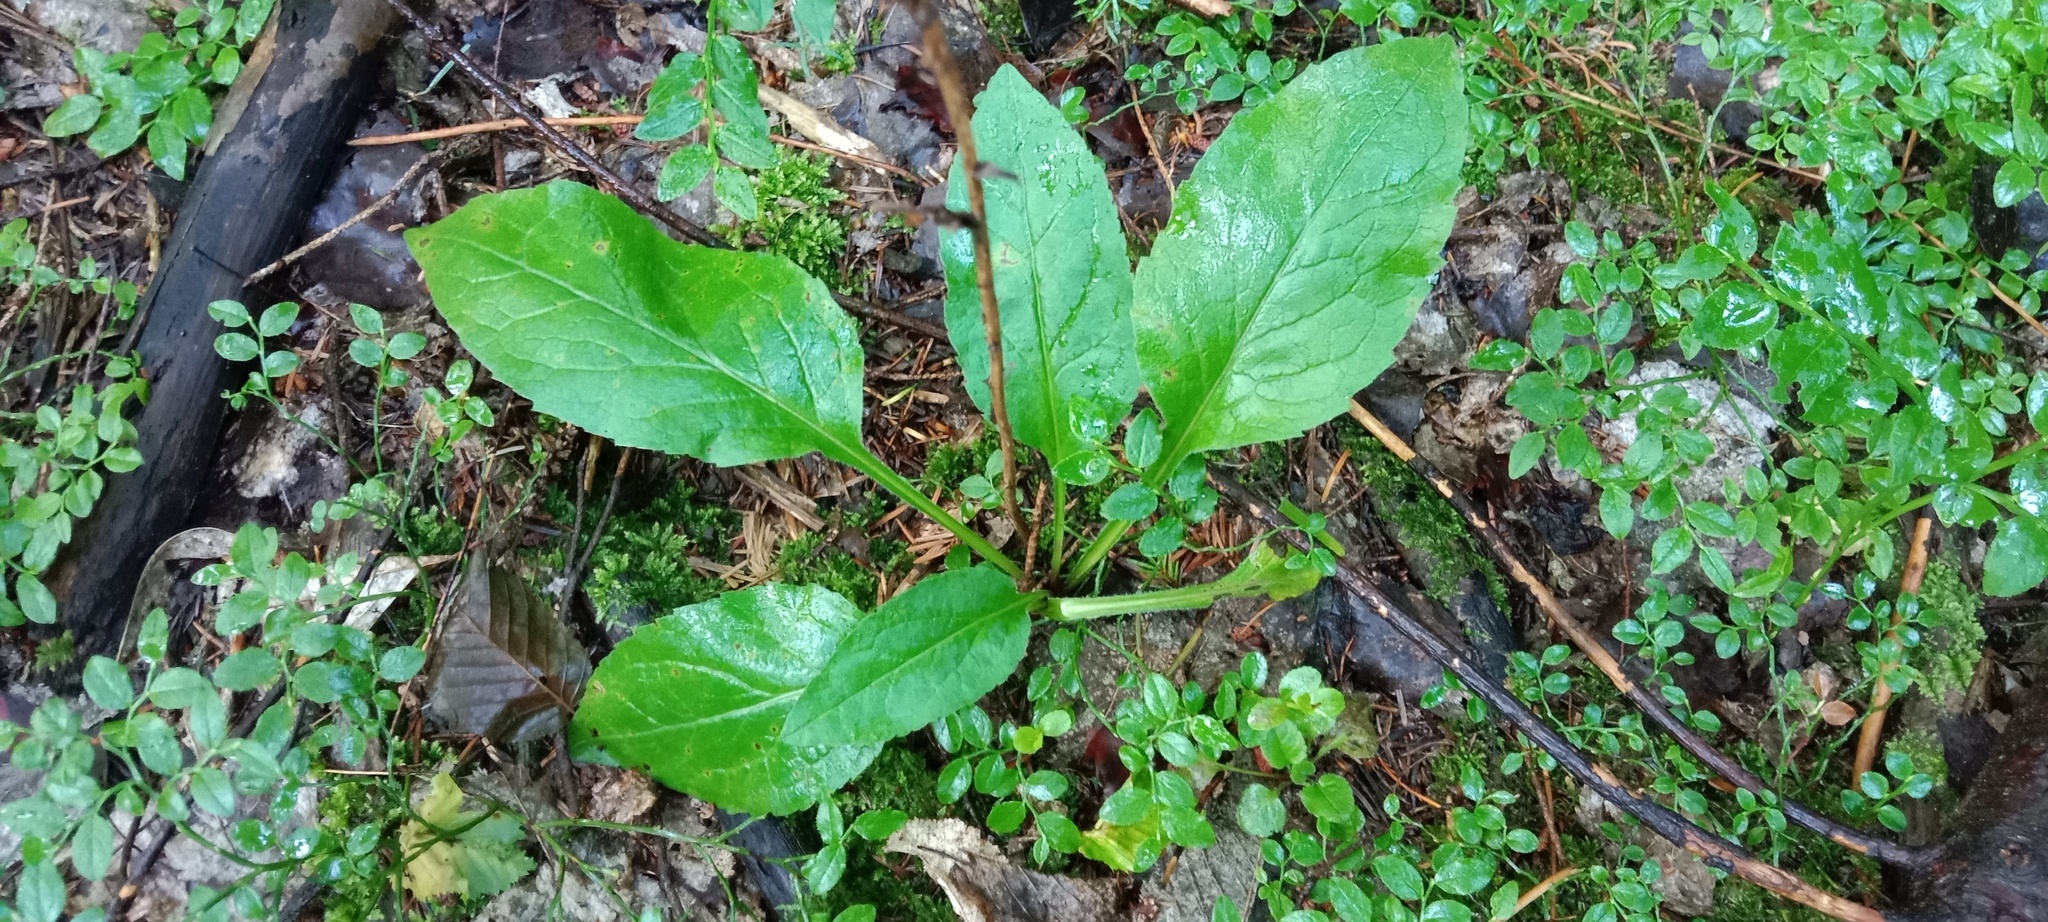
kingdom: Plantae
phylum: Tracheophyta
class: Magnoliopsida
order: Asterales
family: Asteraceae
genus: Solidago
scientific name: Solidago virgaurea
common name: Goldenrod
